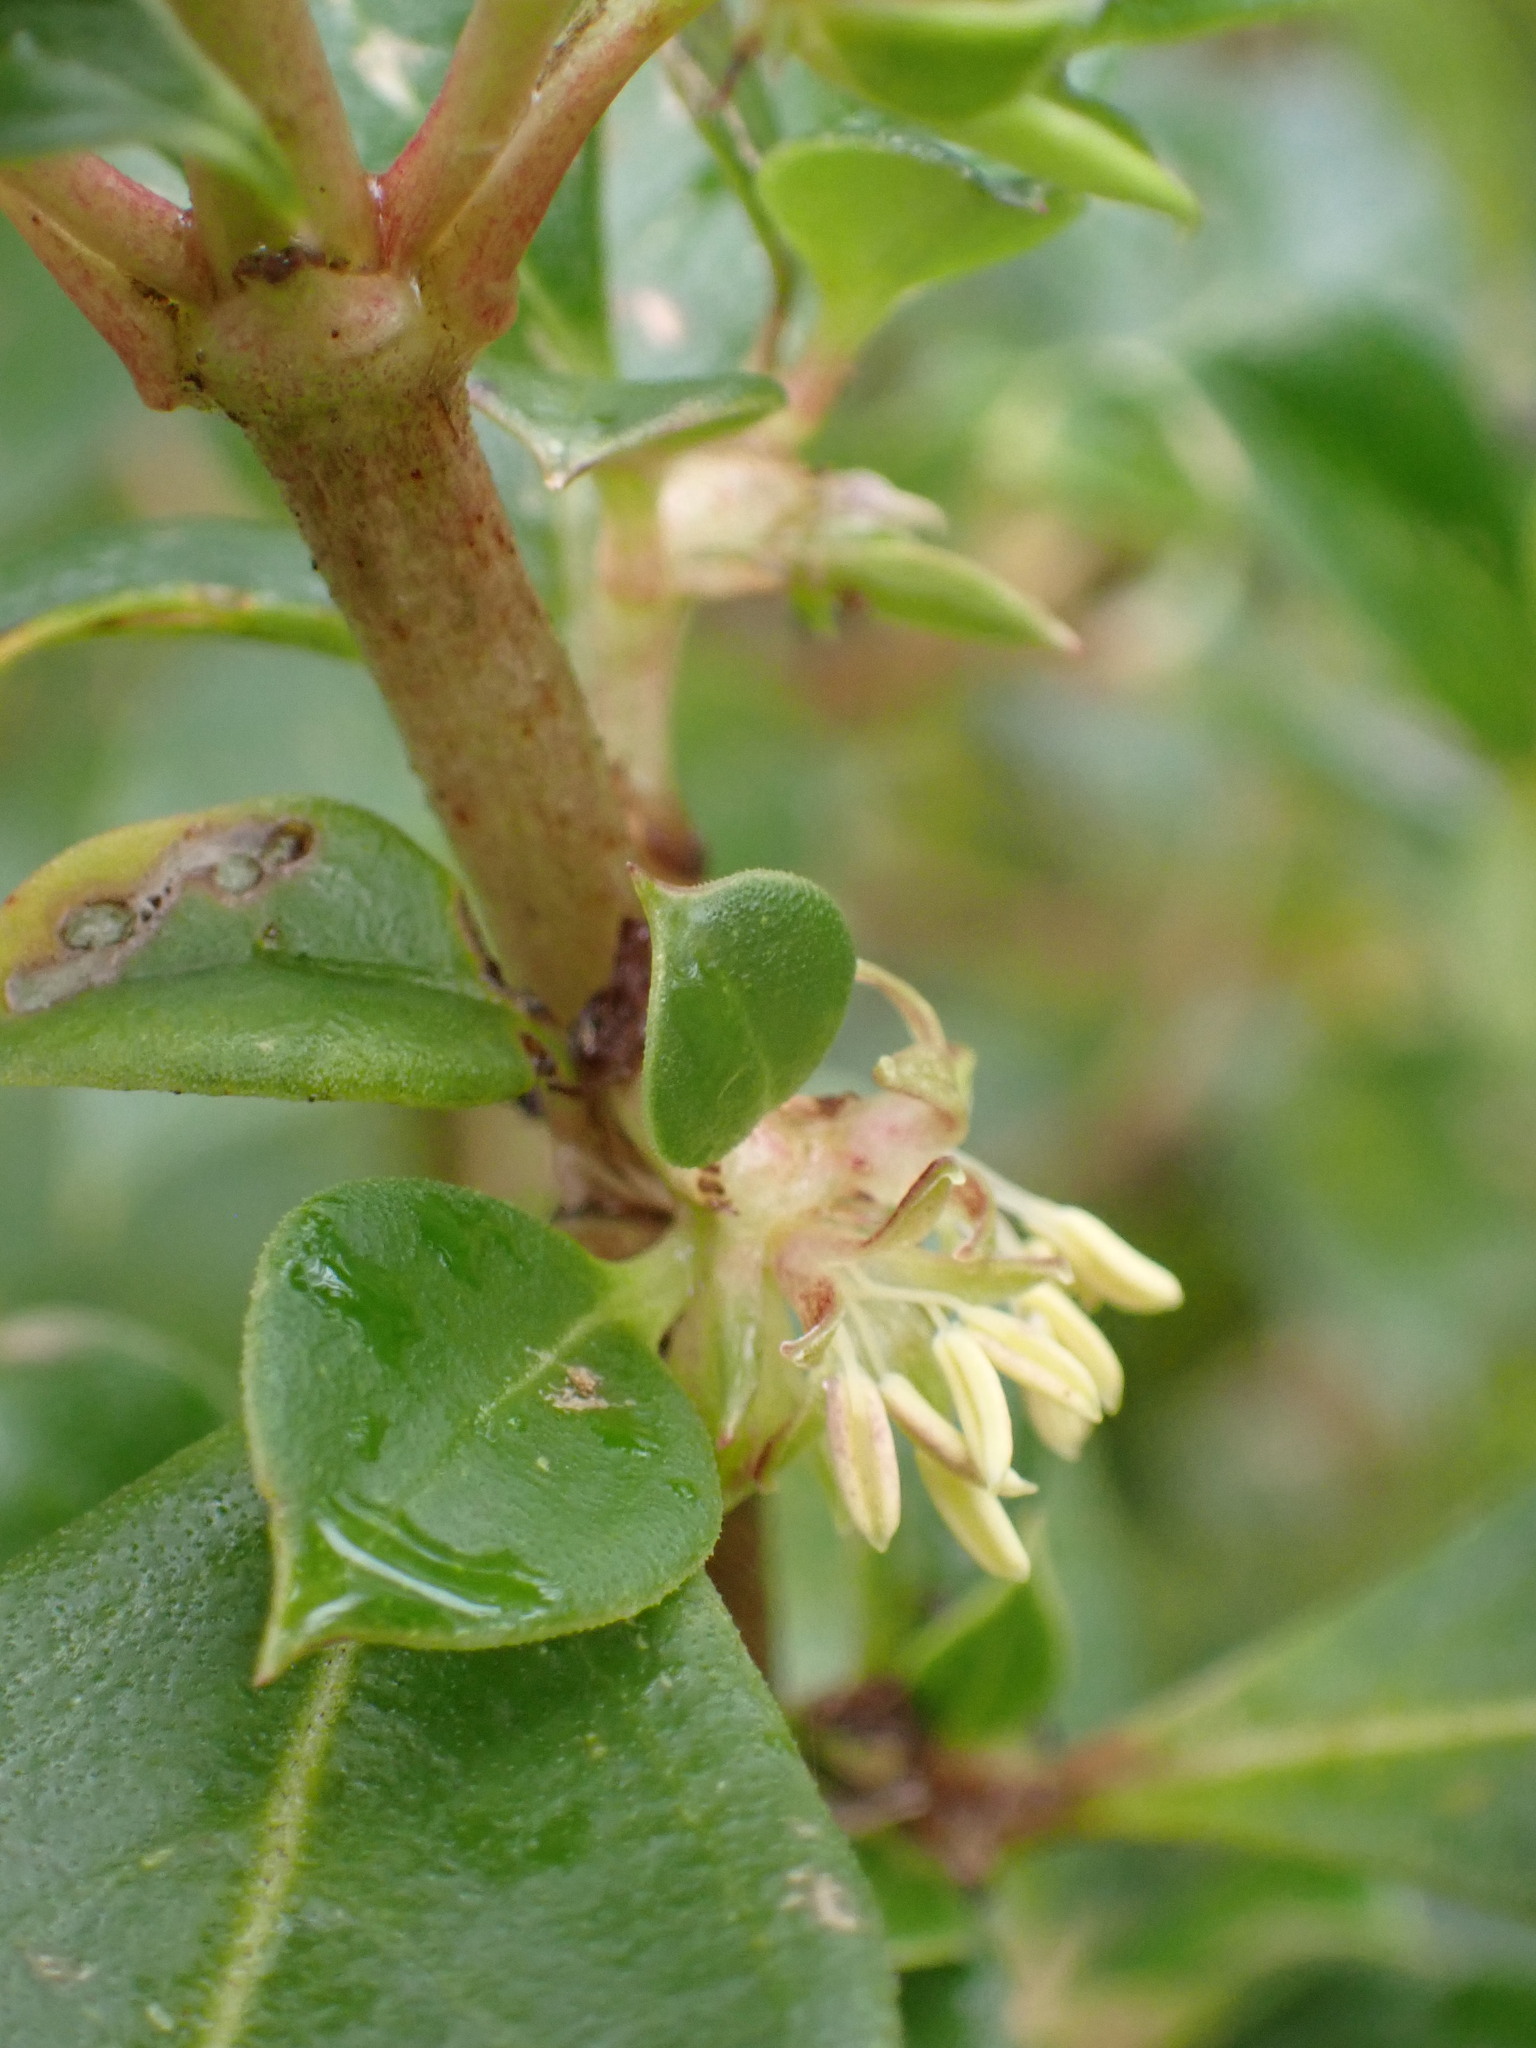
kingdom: Plantae
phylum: Tracheophyta
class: Magnoliopsida
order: Gentianales
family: Rubiaceae
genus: Coprosma
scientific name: Coprosma hirtella
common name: Rough coprosma
